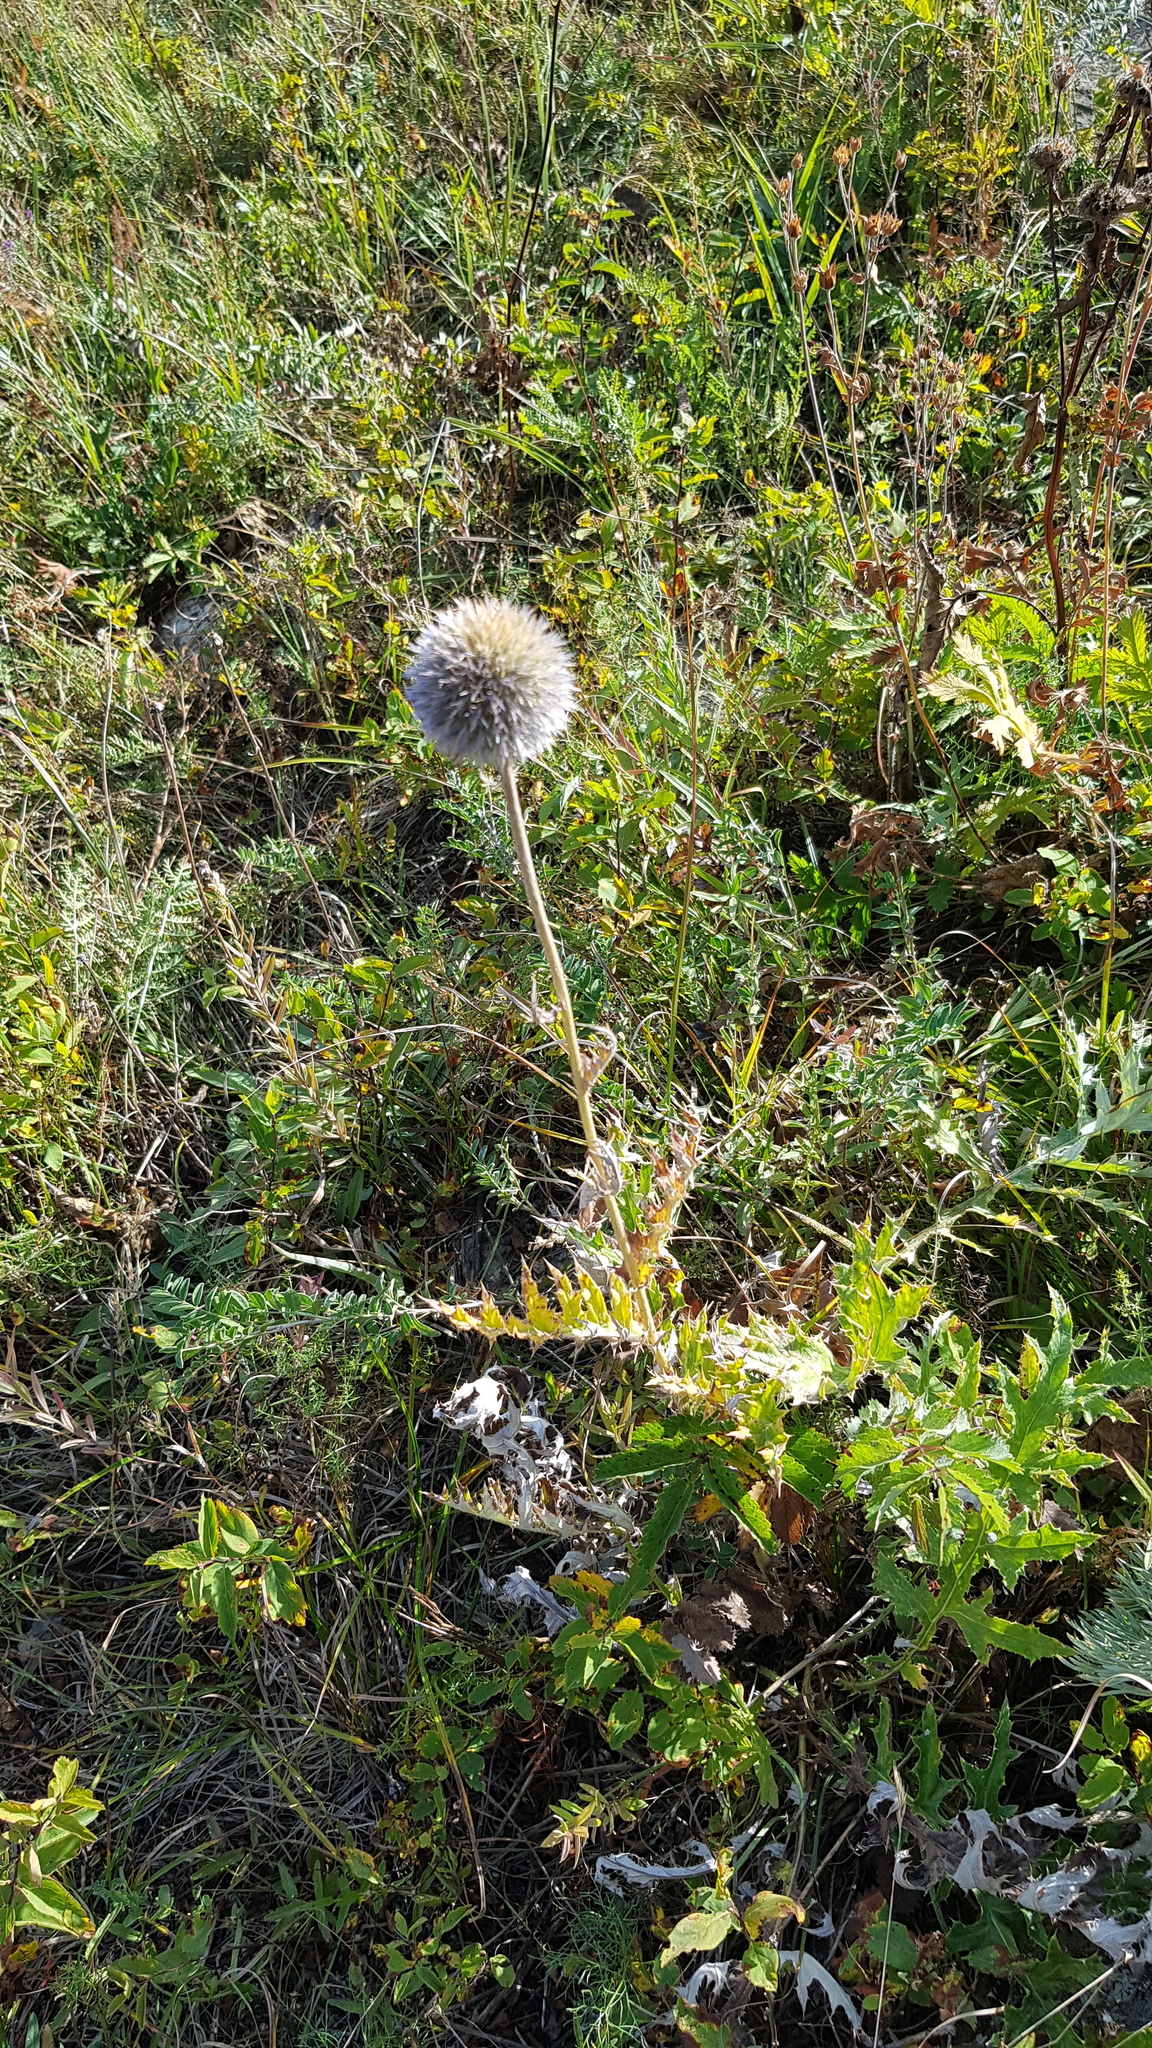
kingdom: Plantae
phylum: Tracheophyta
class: Magnoliopsida
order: Asterales
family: Asteraceae
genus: Echinops
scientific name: Echinops davuricus
